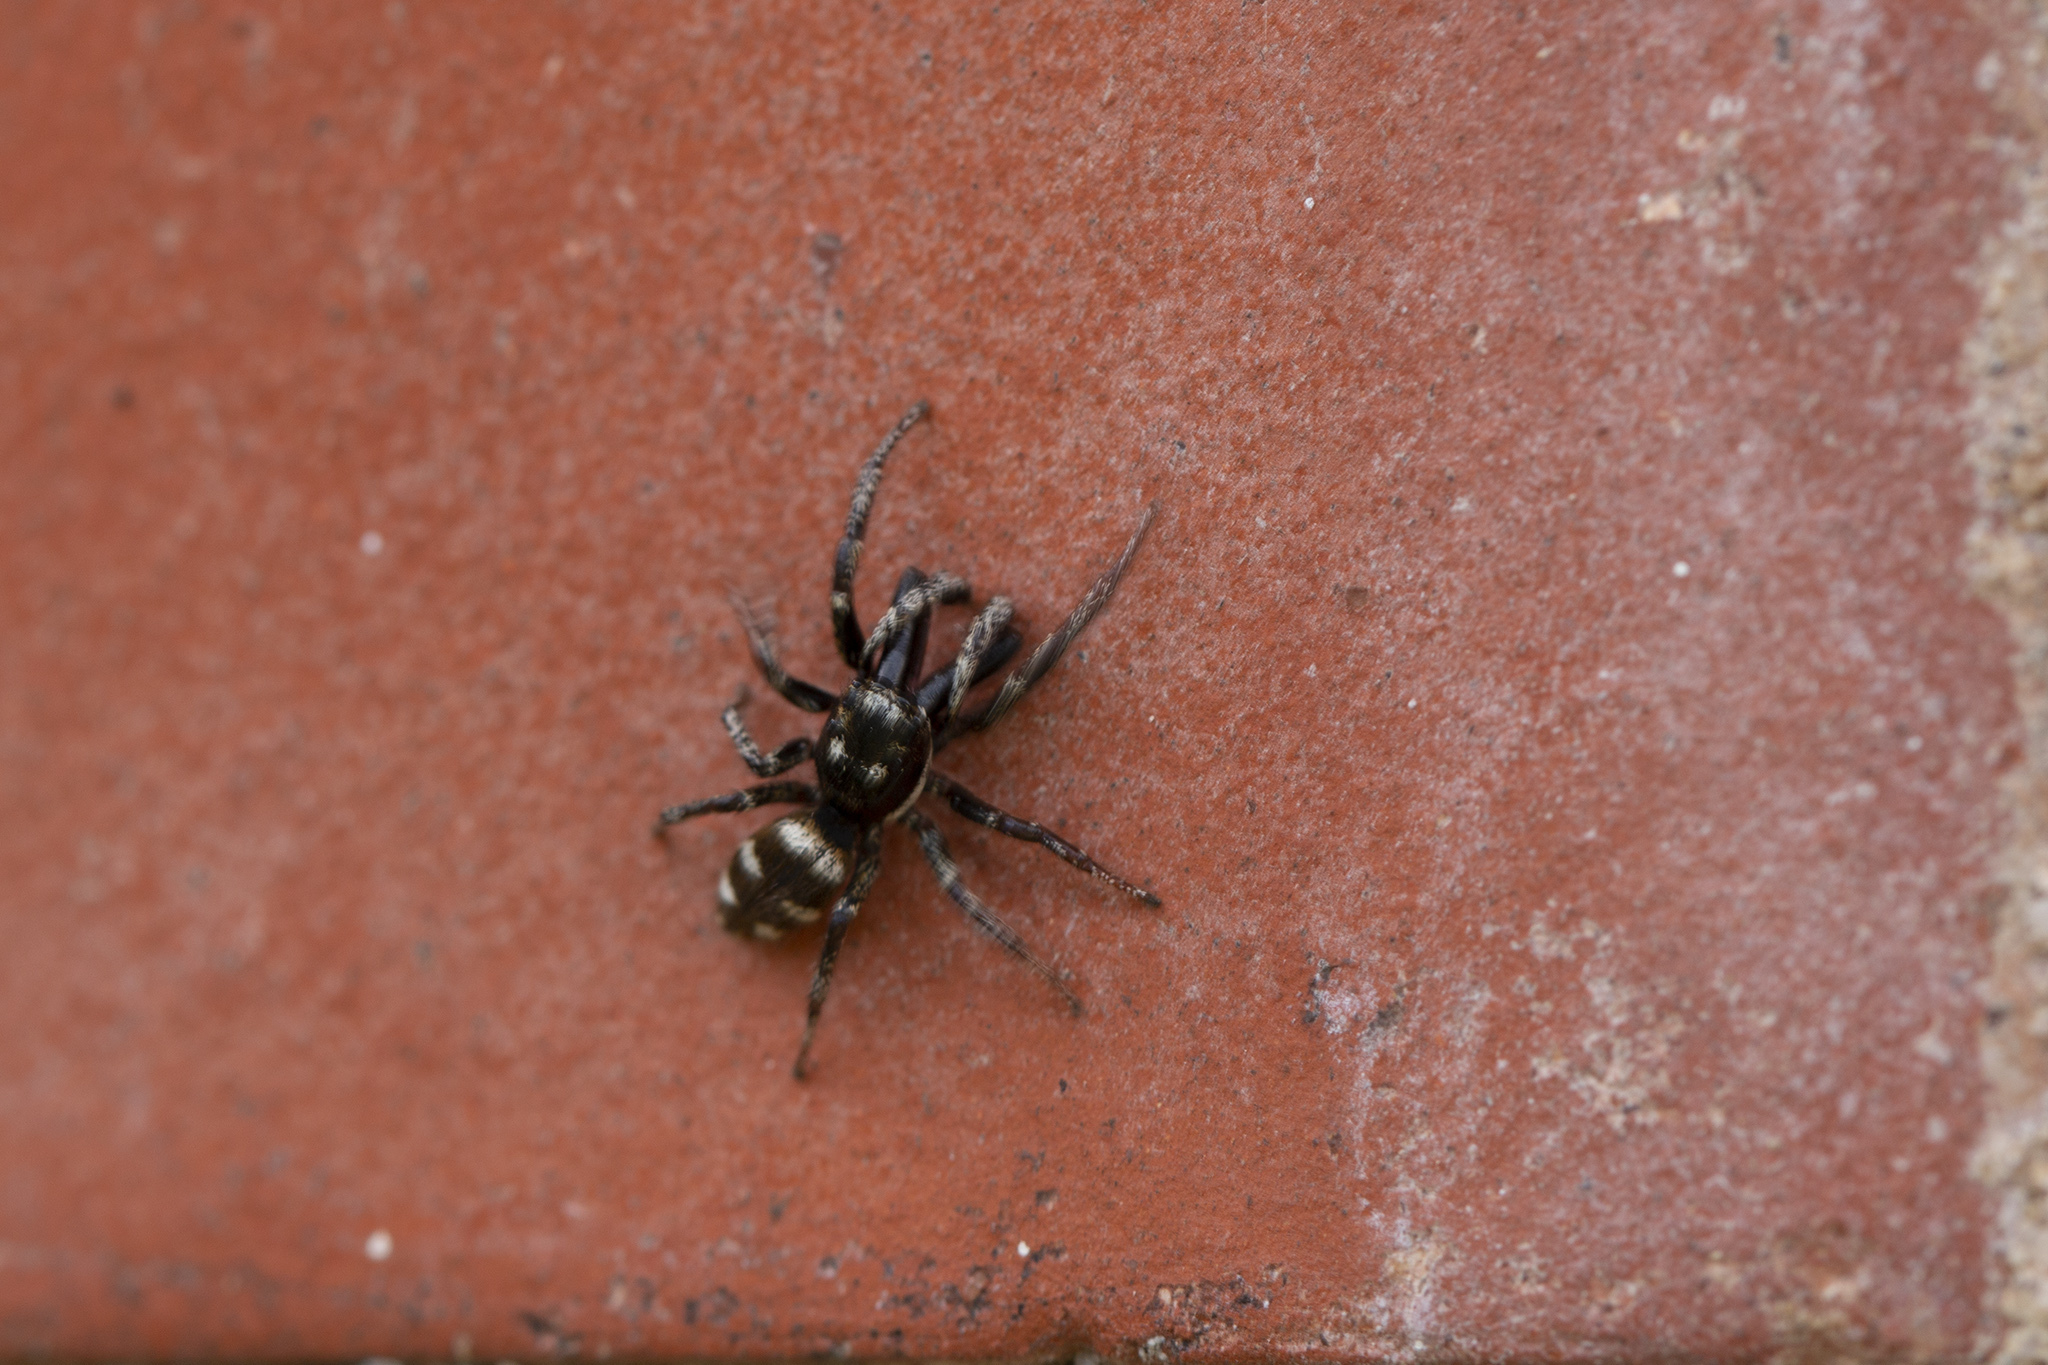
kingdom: Animalia
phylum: Arthropoda
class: Arachnida
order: Araneae
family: Salticidae
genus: Salticus
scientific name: Salticus scenicus
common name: Zebra jumper
